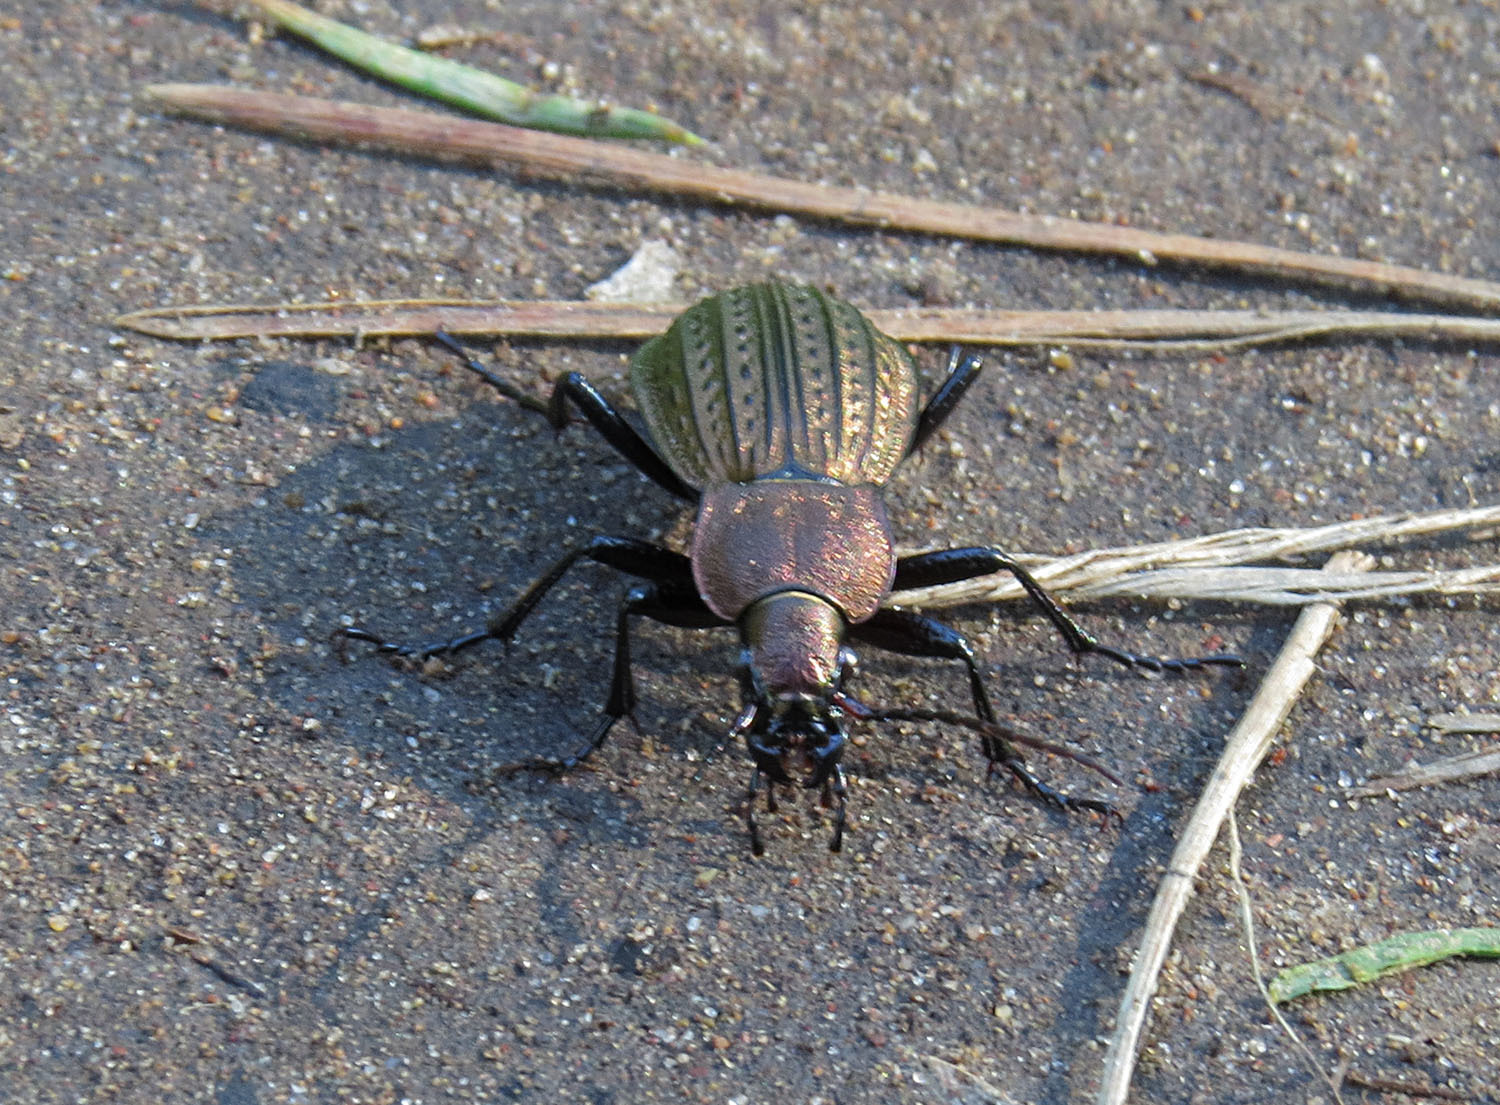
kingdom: Animalia
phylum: Arthropoda
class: Insecta
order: Coleoptera
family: Carabidae
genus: Carabus
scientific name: Carabus cancellatus
